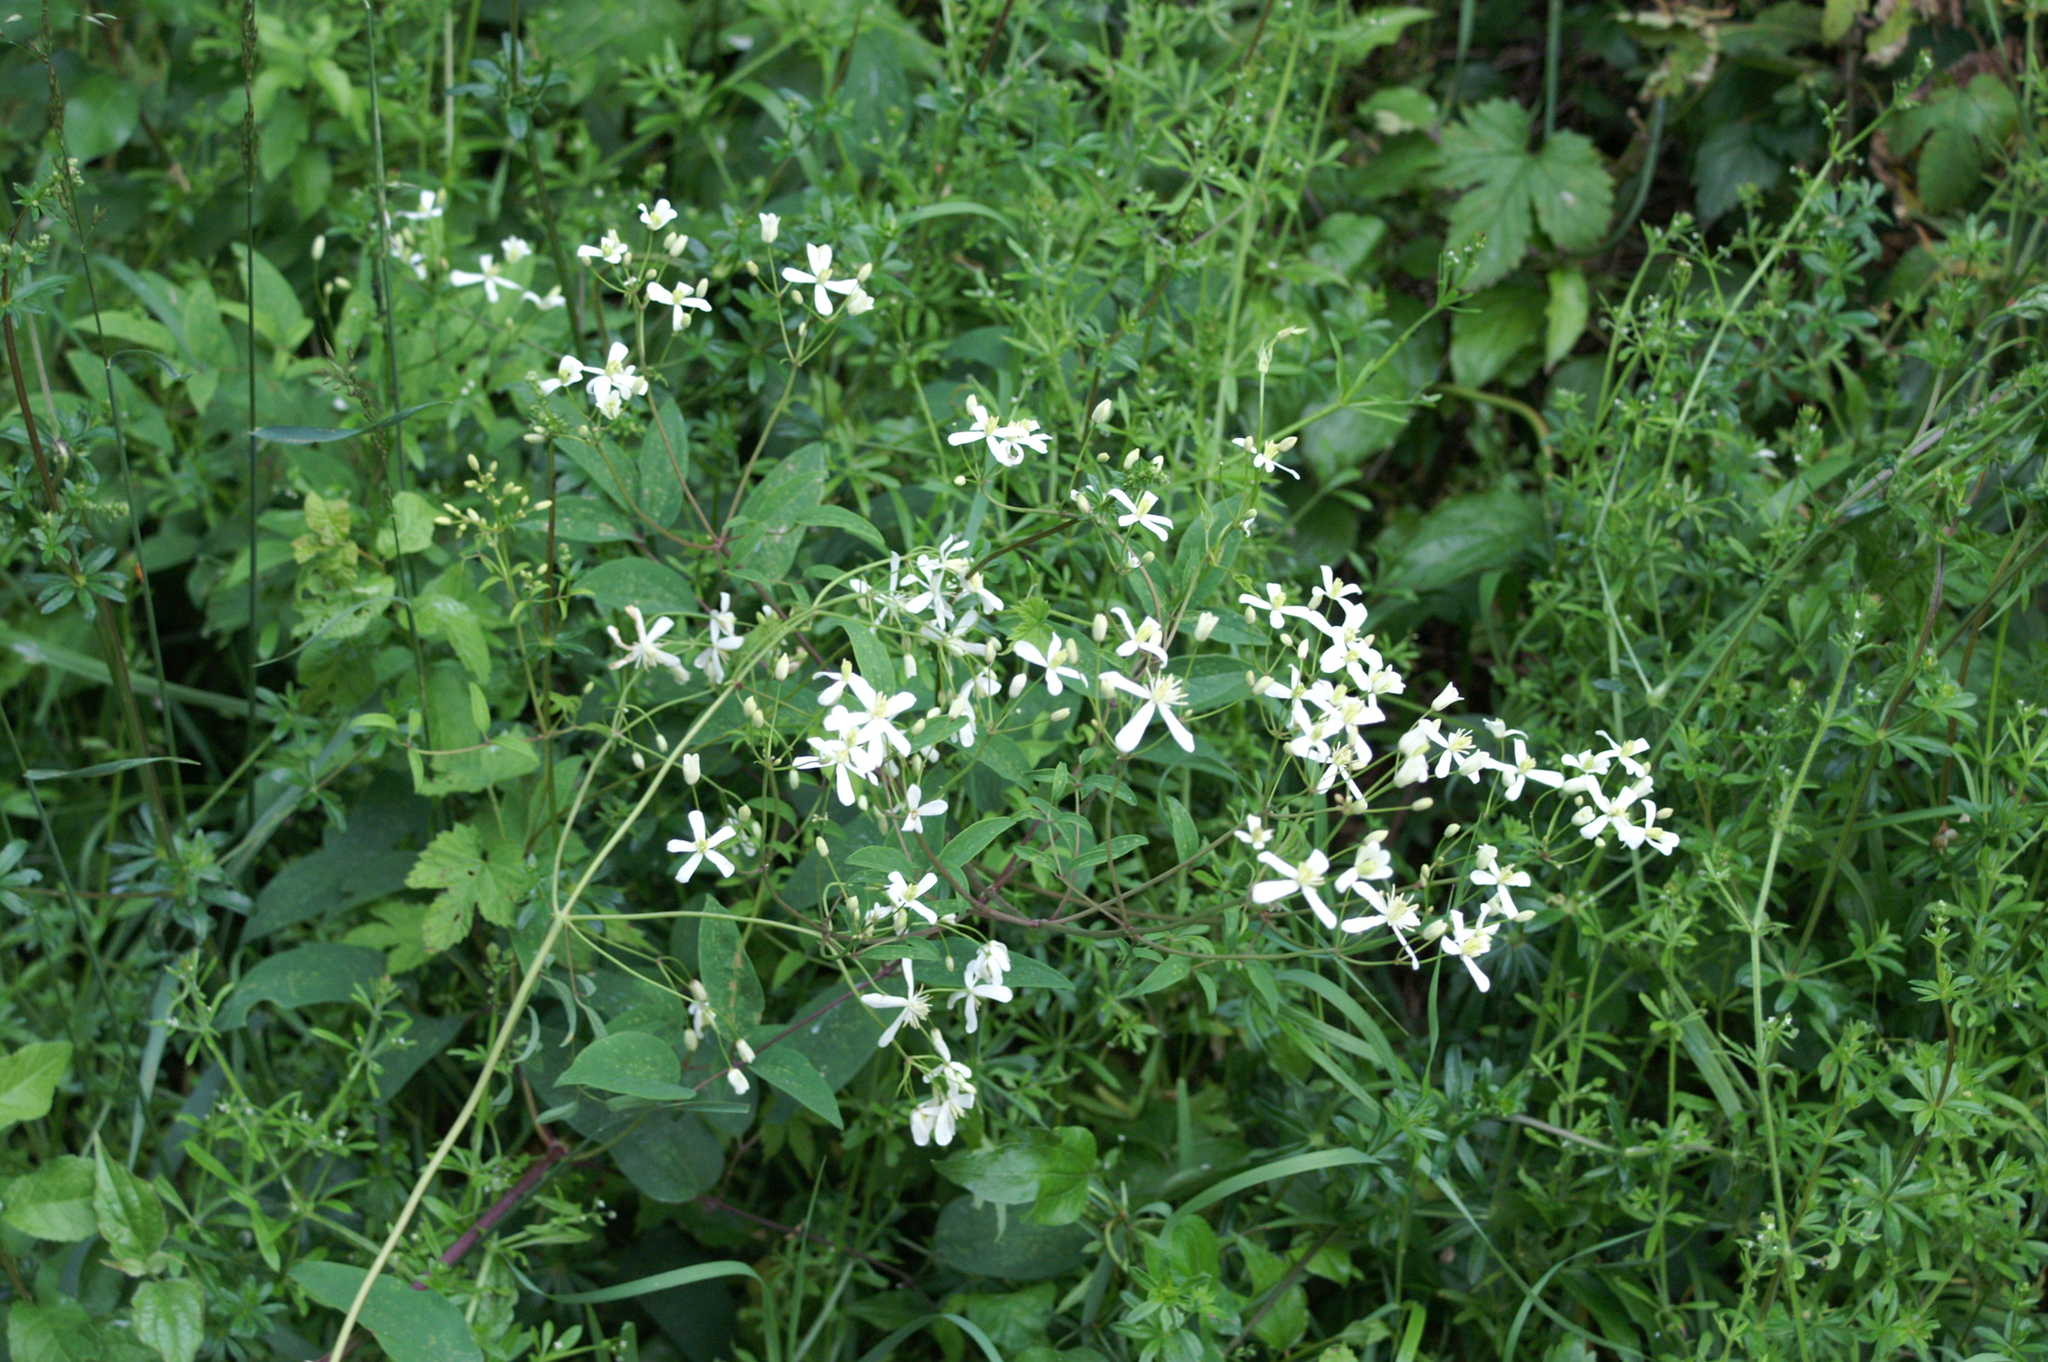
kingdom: Plantae
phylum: Tracheophyta
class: Magnoliopsida
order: Ranunculales
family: Ranunculaceae
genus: Clematis
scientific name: Clematis recta
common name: Ground clematis
